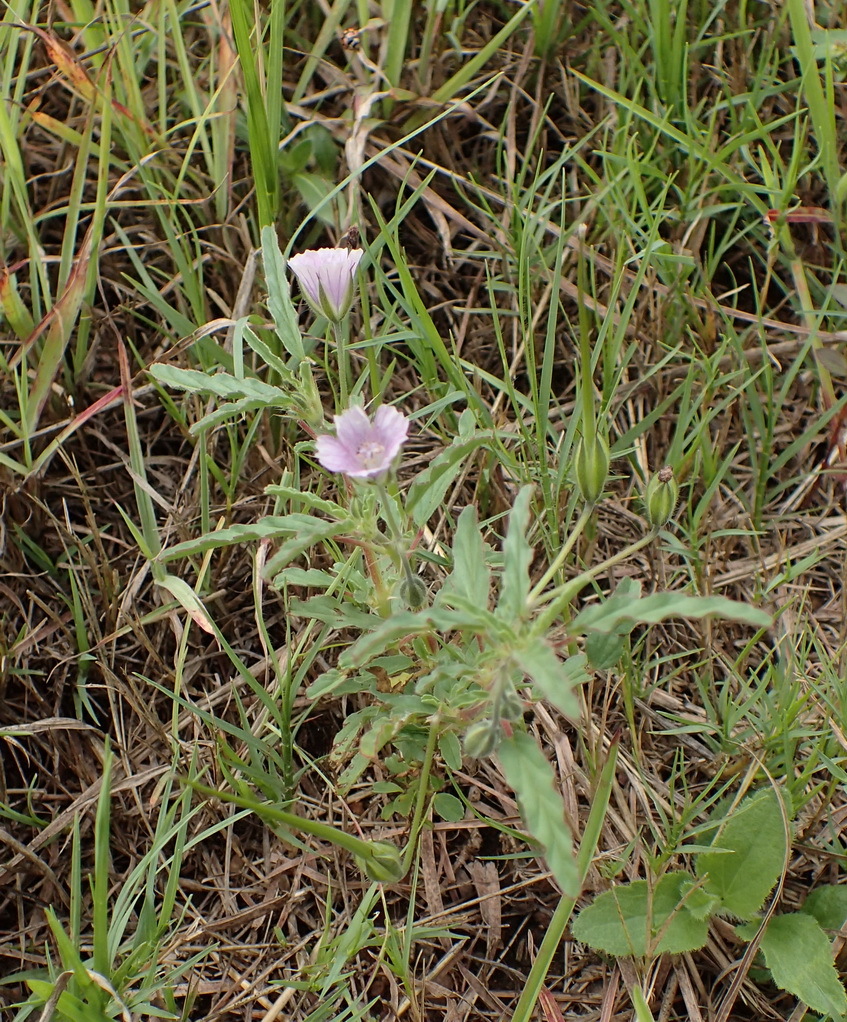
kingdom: Plantae
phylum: Tracheophyta
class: Magnoliopsida
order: Geraniales
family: Geraniaceae
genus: Monsonia
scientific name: Monsonia angustifolia
